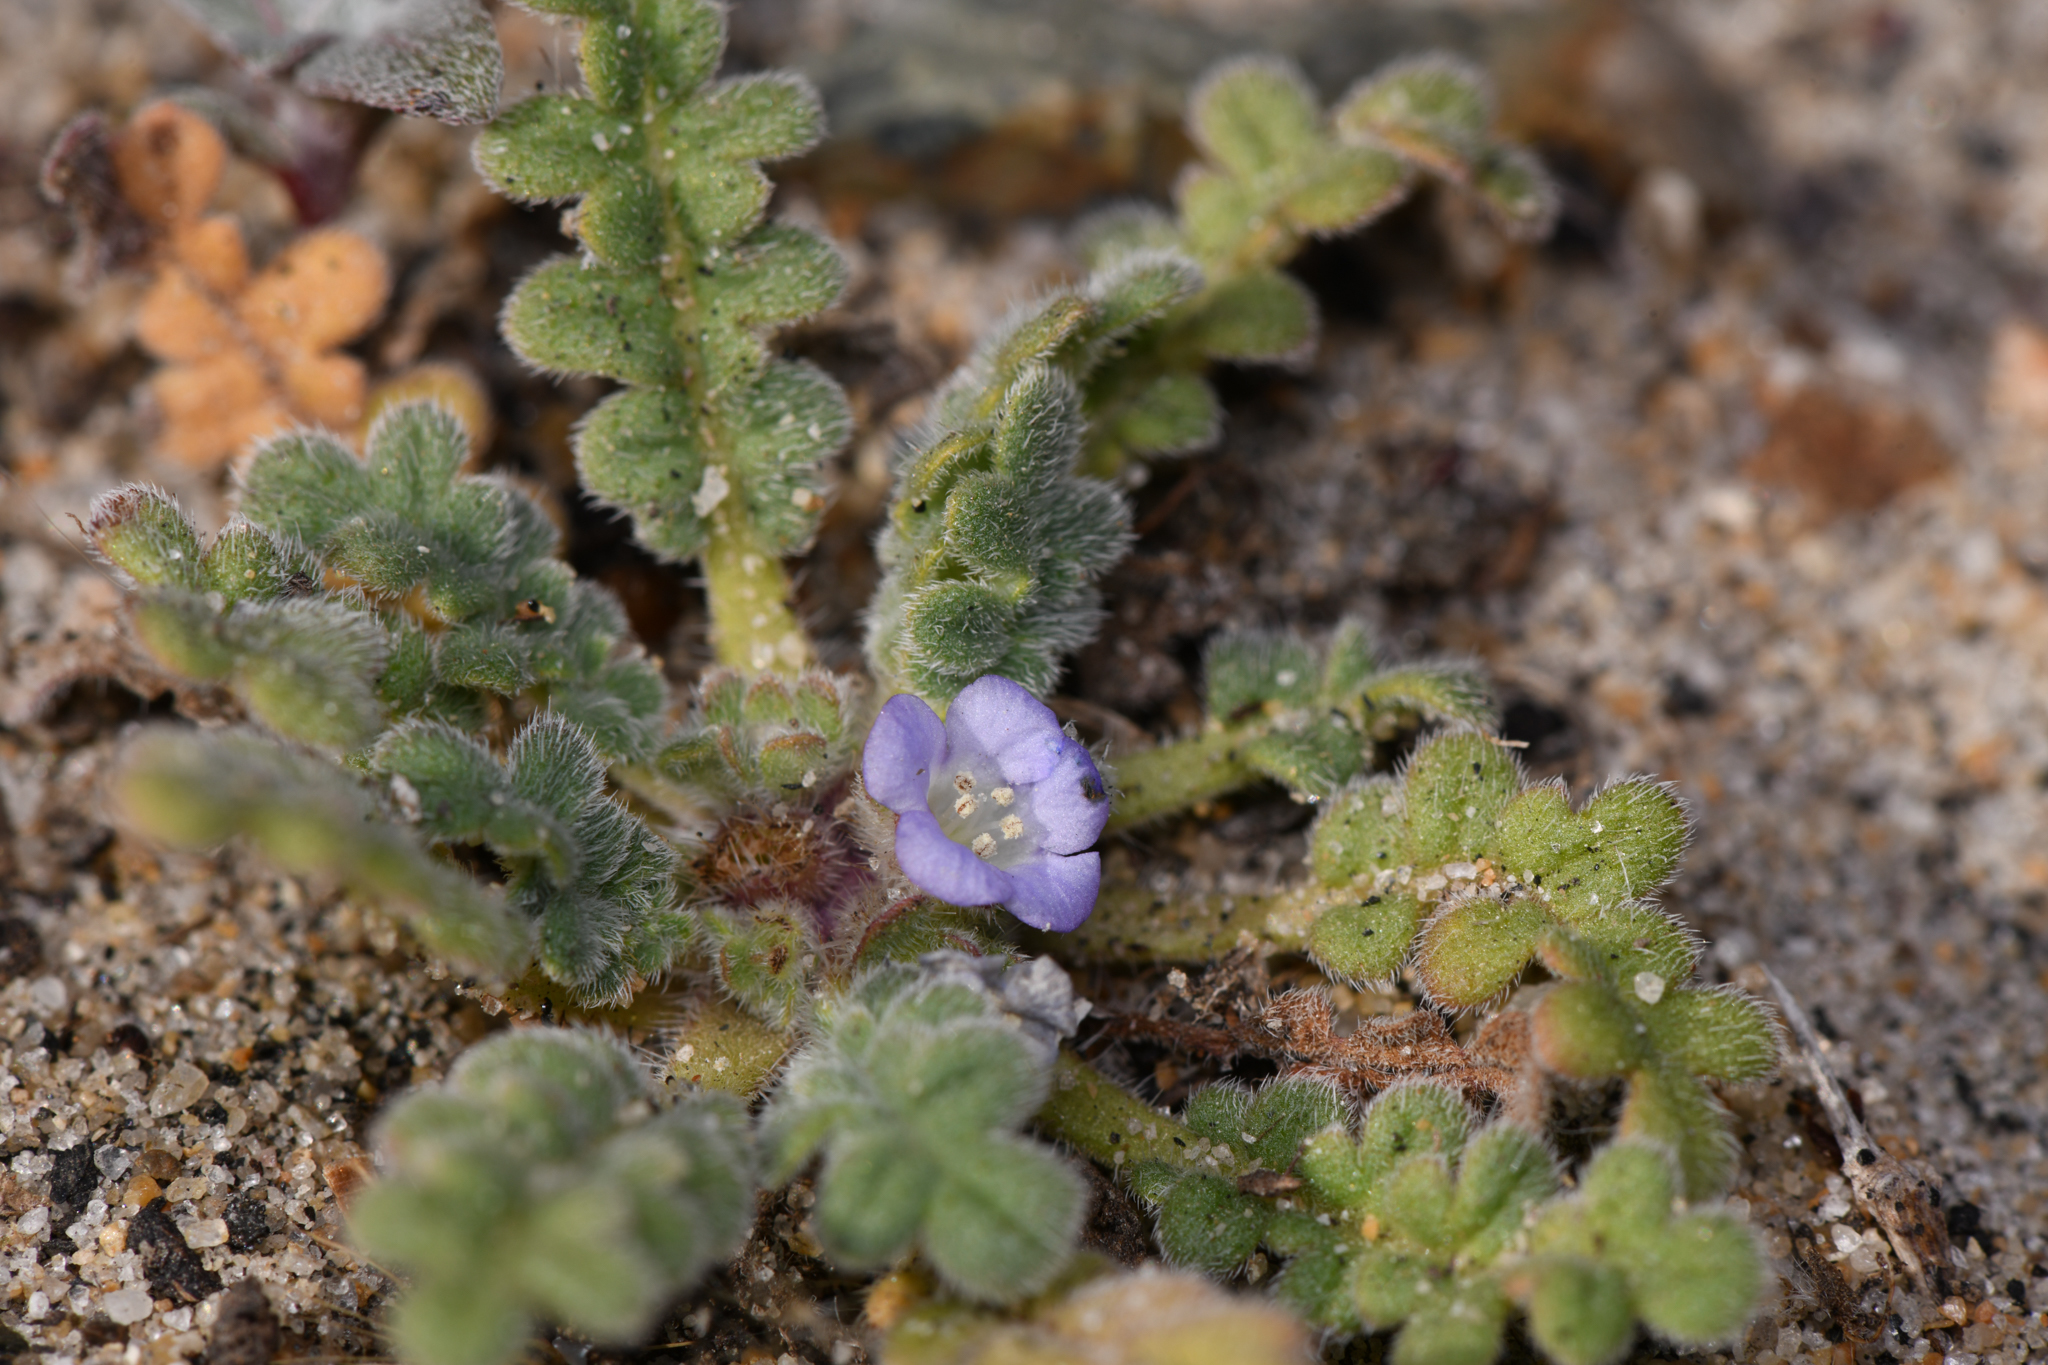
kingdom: Plantae
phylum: Tracheophyta
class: Magnoliopsida
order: Boraginales
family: Hydrophyllaceae
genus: Phacelia
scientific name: Phacelia stellaris
